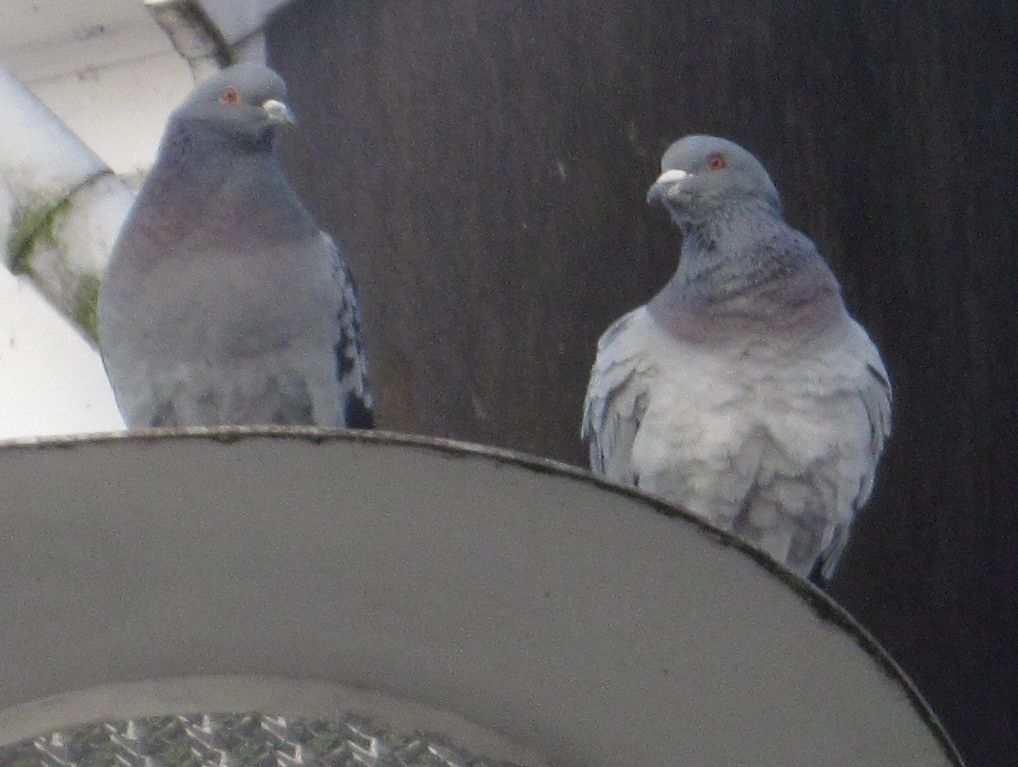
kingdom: Animalia
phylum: Chordata
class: Aves
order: Columbiformes
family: Columbidae
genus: Columba
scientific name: Columba livia
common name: Rock pigeon
